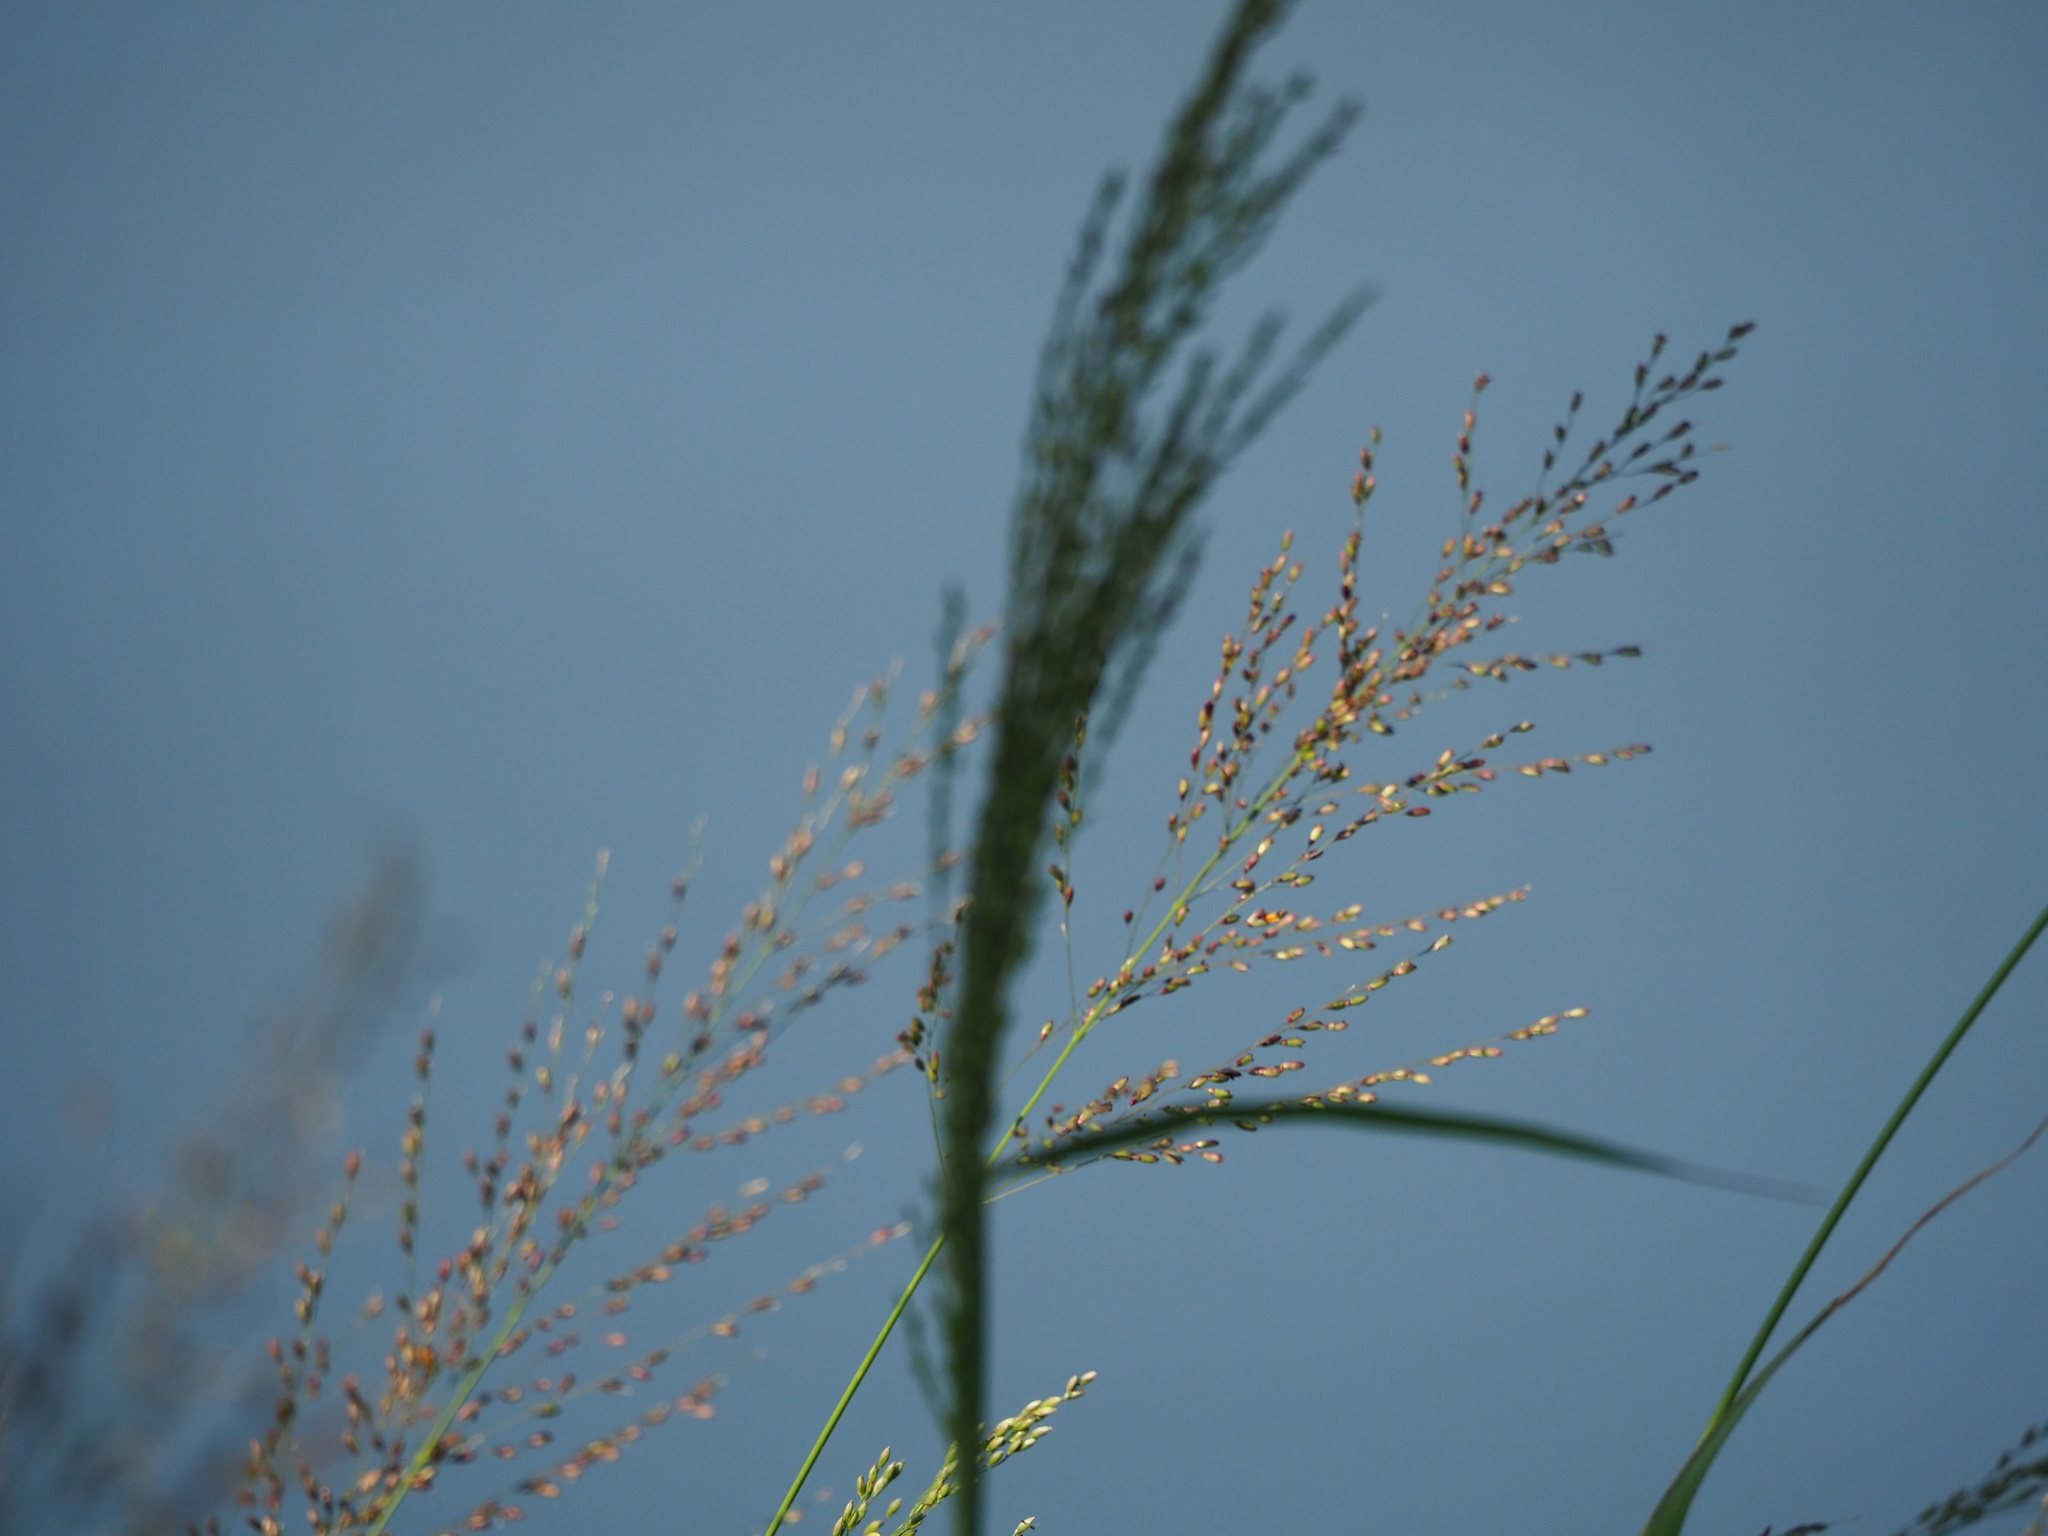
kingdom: Plantae
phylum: Tracheophyta
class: Liliopsida
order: Poales
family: Poaceae
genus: Megathyrsus
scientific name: Megathyrsus maximus
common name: Guineagrass
